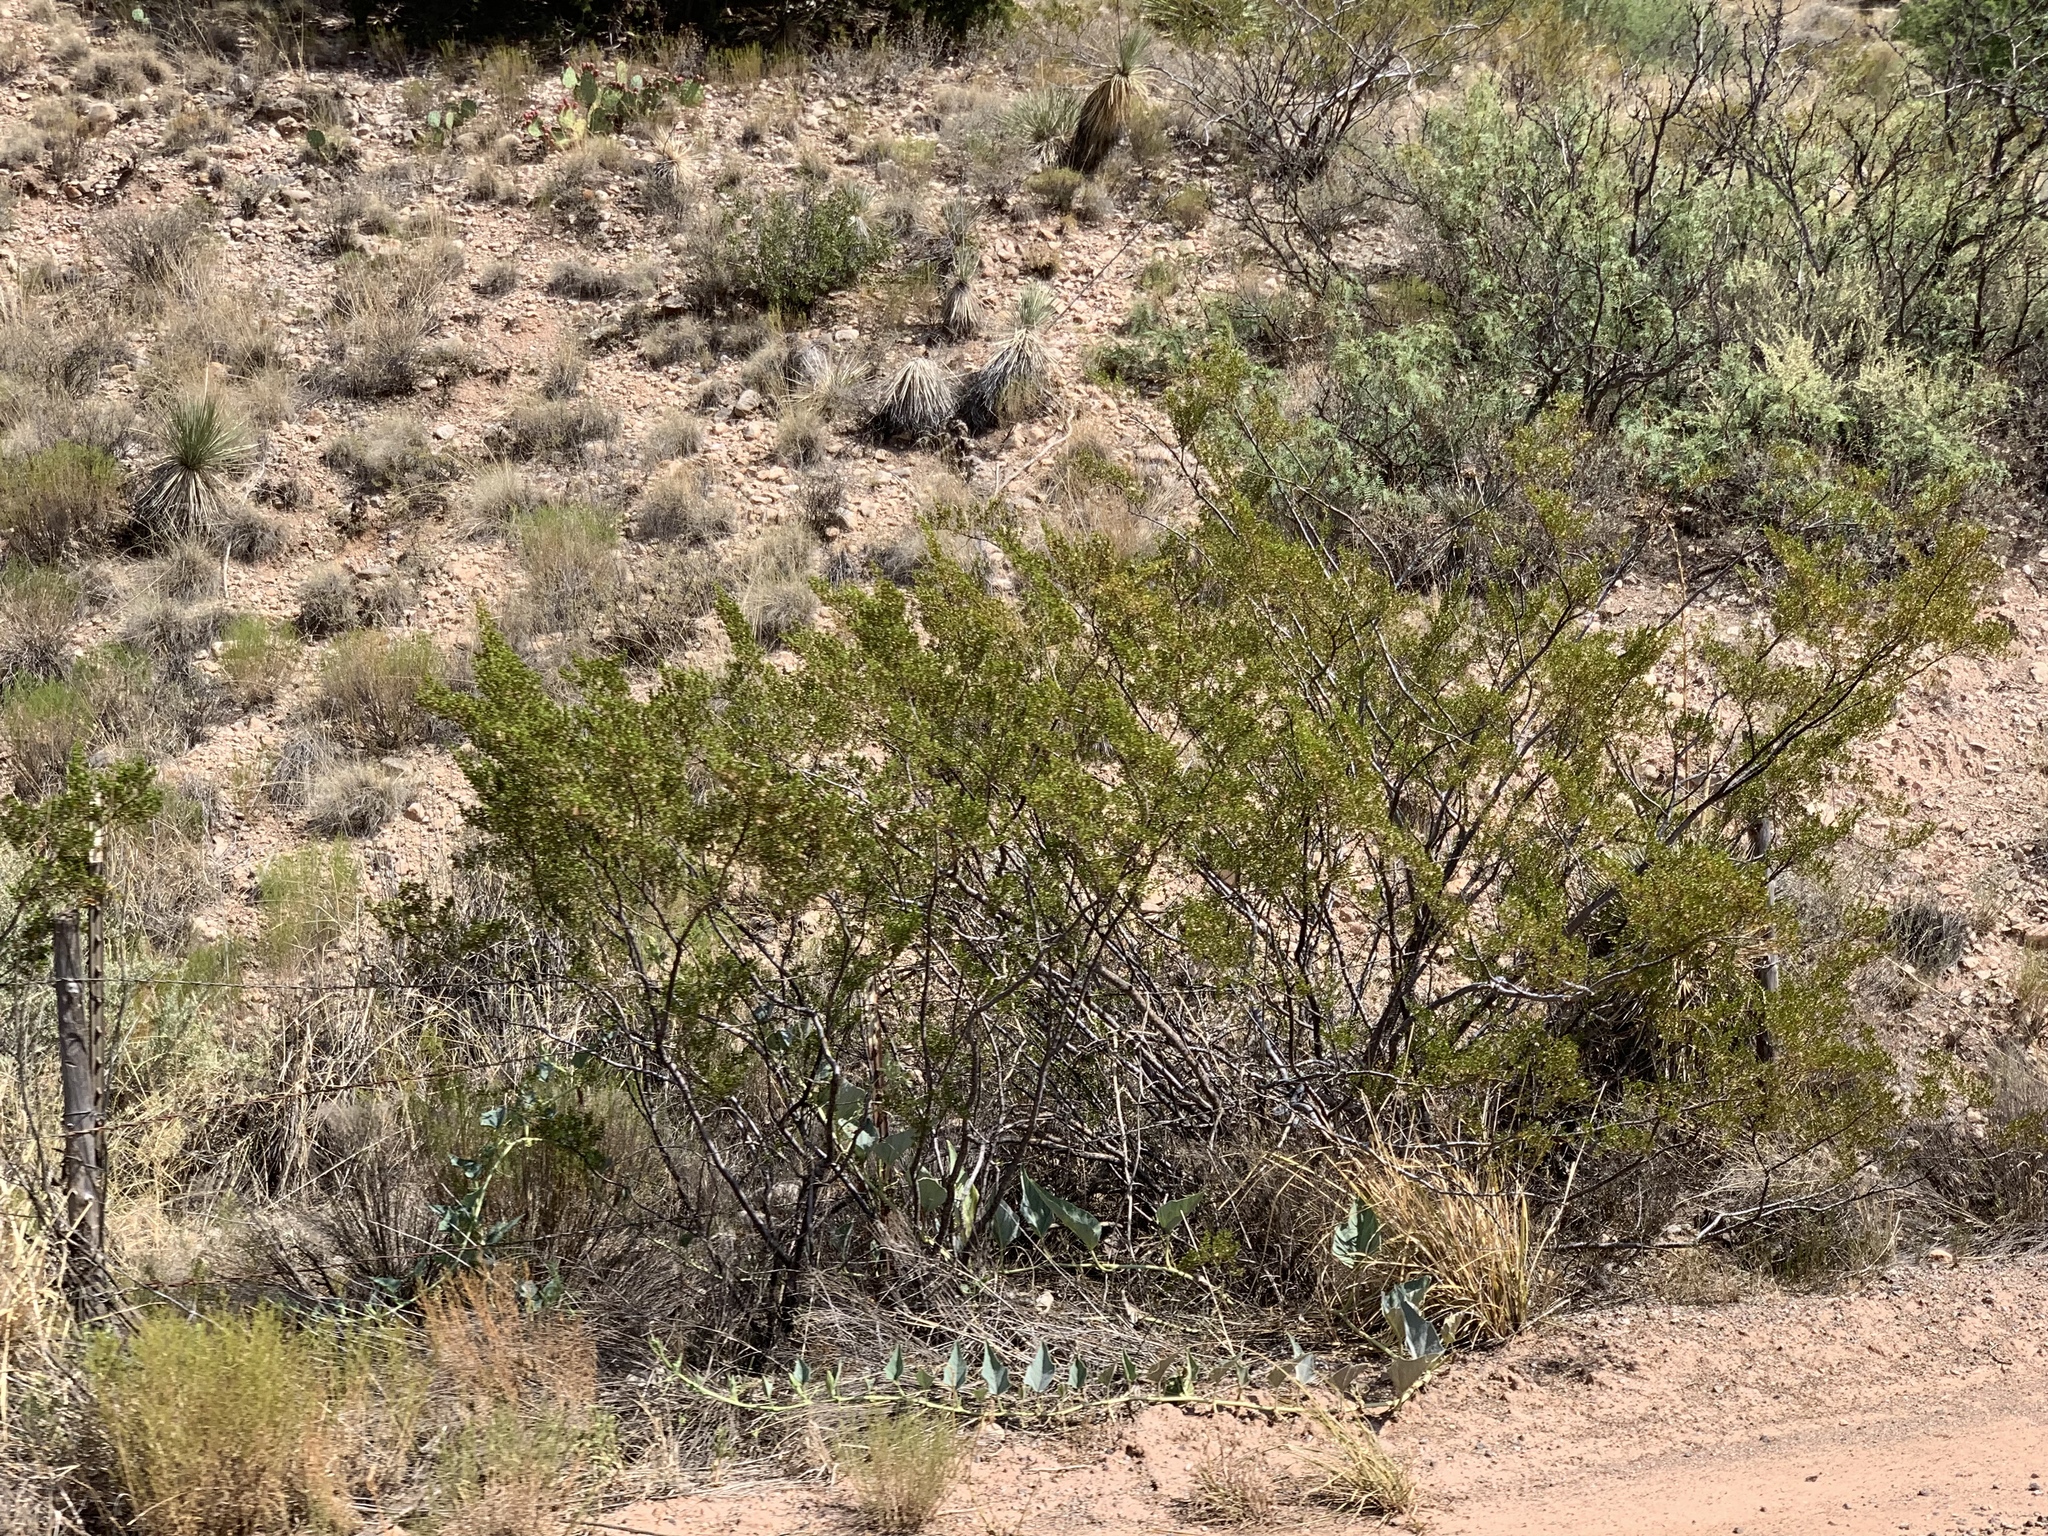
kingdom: Plantae
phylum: Tracheophyta
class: Magnoliopsida
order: Zygophyllales
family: Zygophyllaceae
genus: Larrea
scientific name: Larrea tridentata
